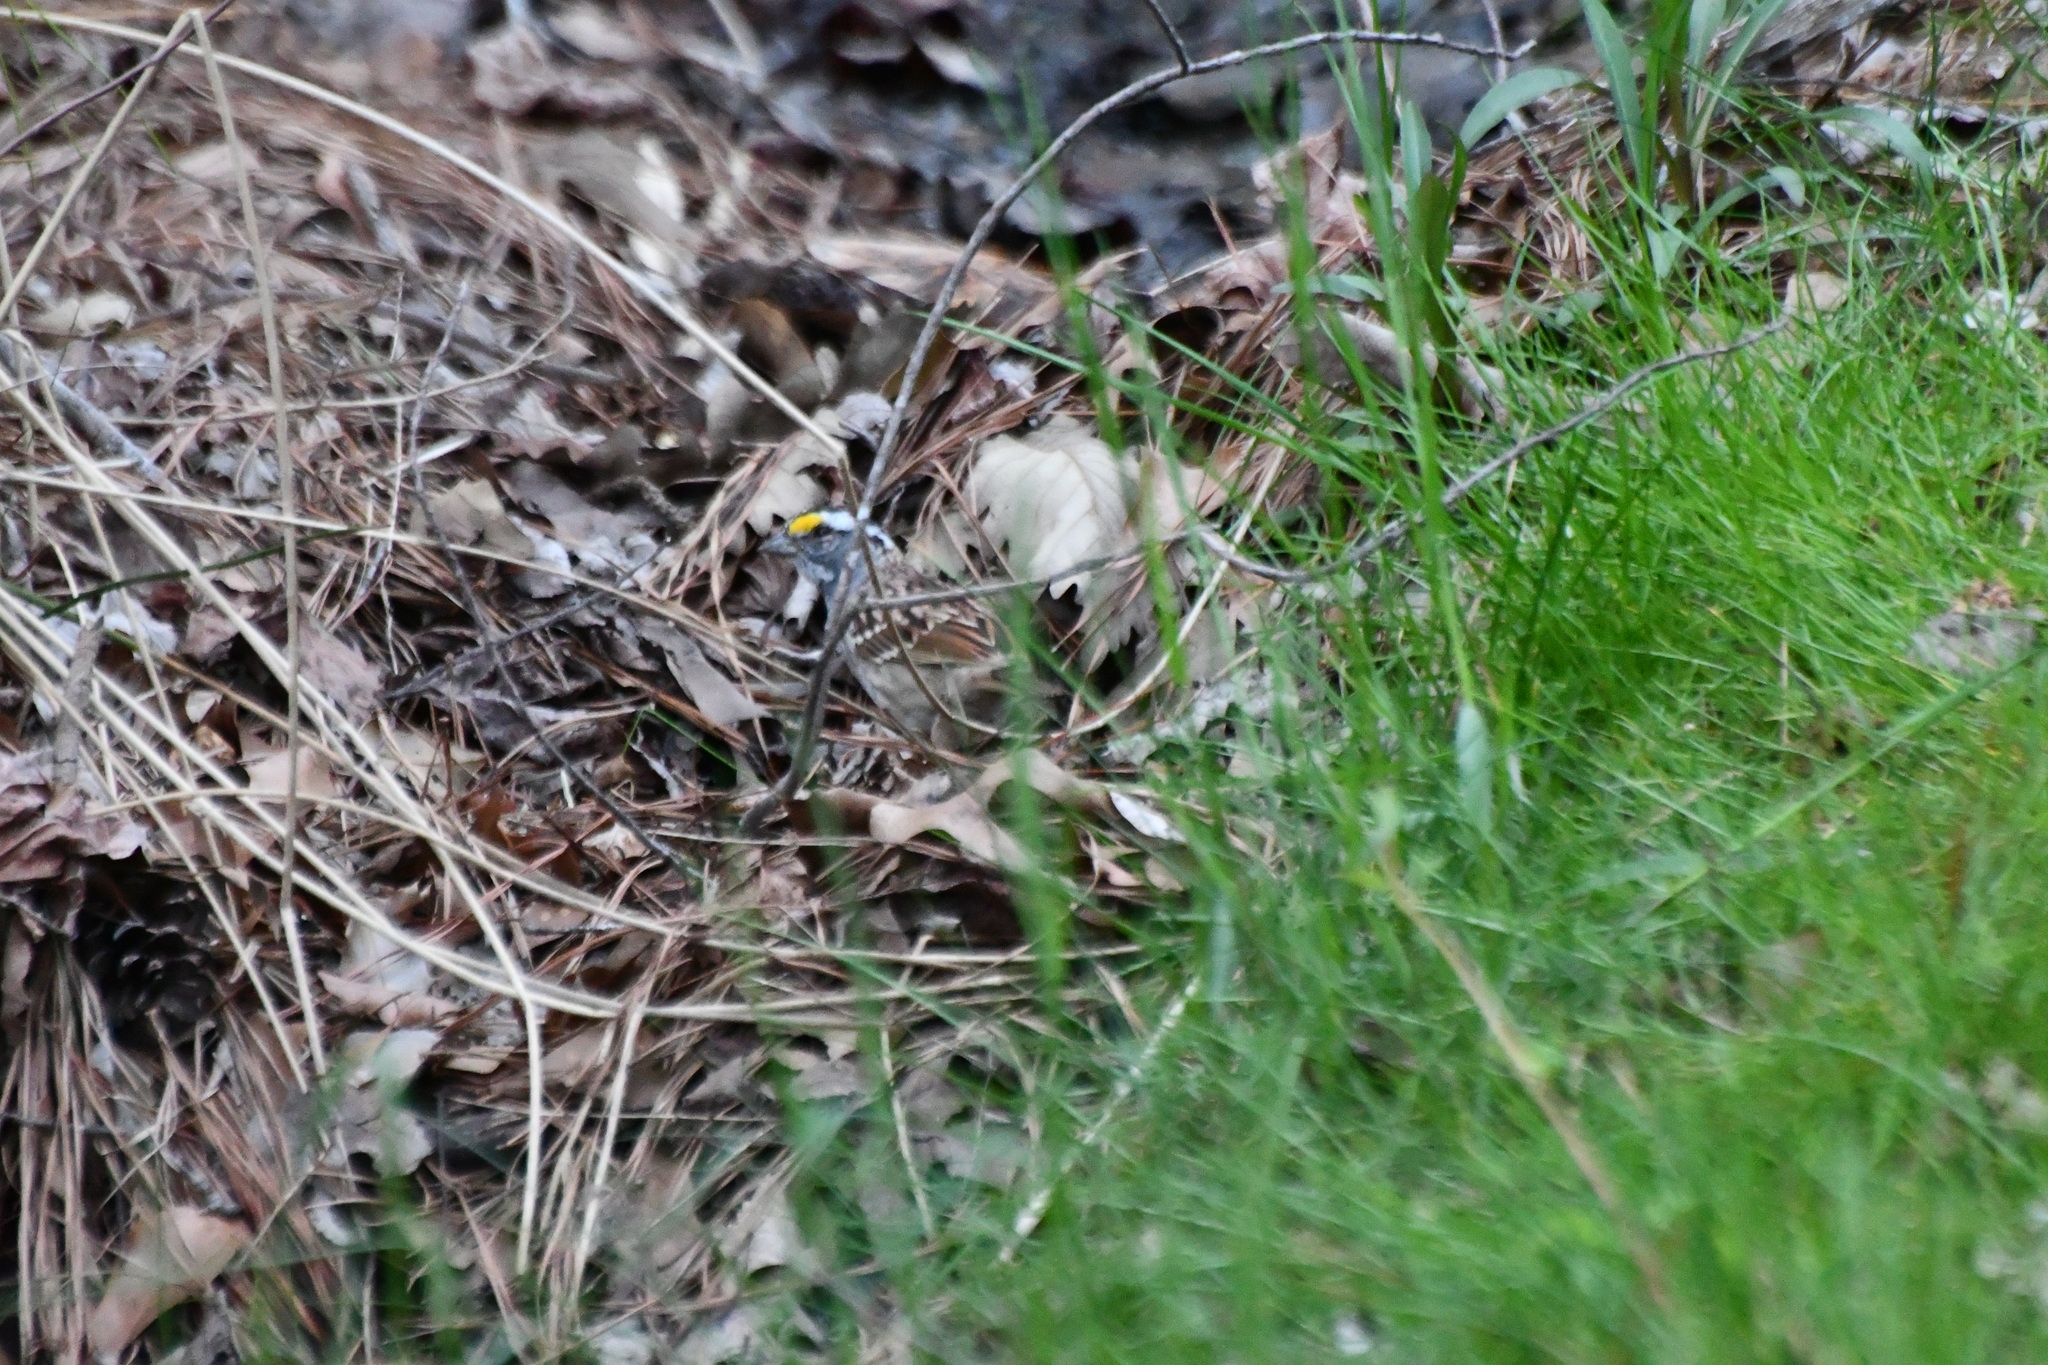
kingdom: Animalia
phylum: Chordata
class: Aves
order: Passeriformes
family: Passerellidae
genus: Zonotrichia
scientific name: Zonotrichia albicollis
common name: White-throated sparrow
